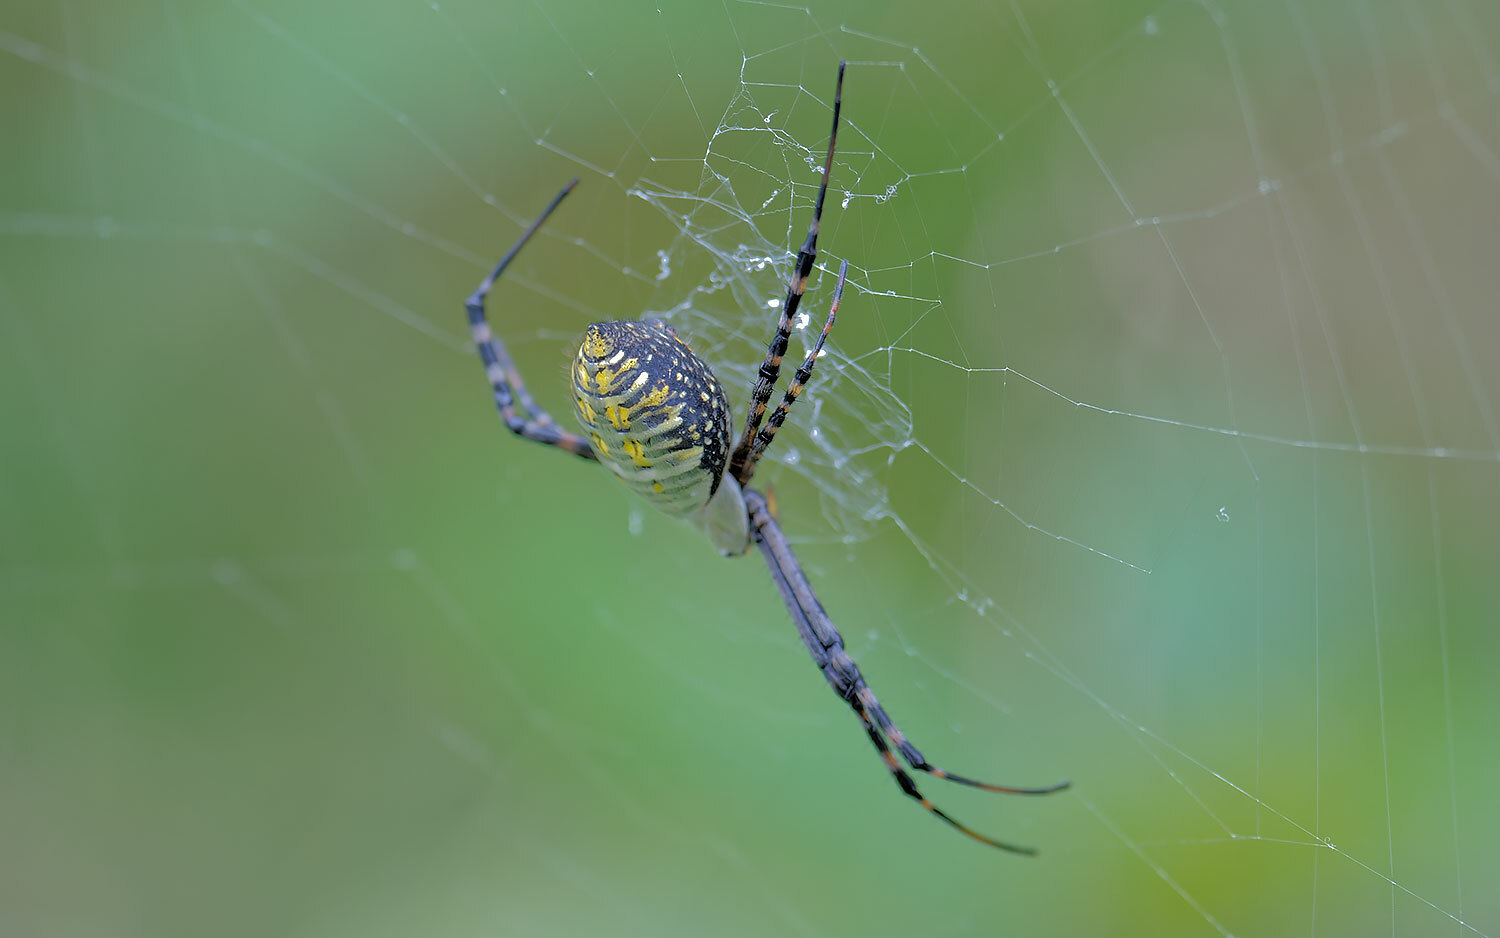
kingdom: Animalia
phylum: Arthropoda
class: Arachnida
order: Araneae
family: Araneidae
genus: Argiope
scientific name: Argiope trifasciata
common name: Banded garden spider
